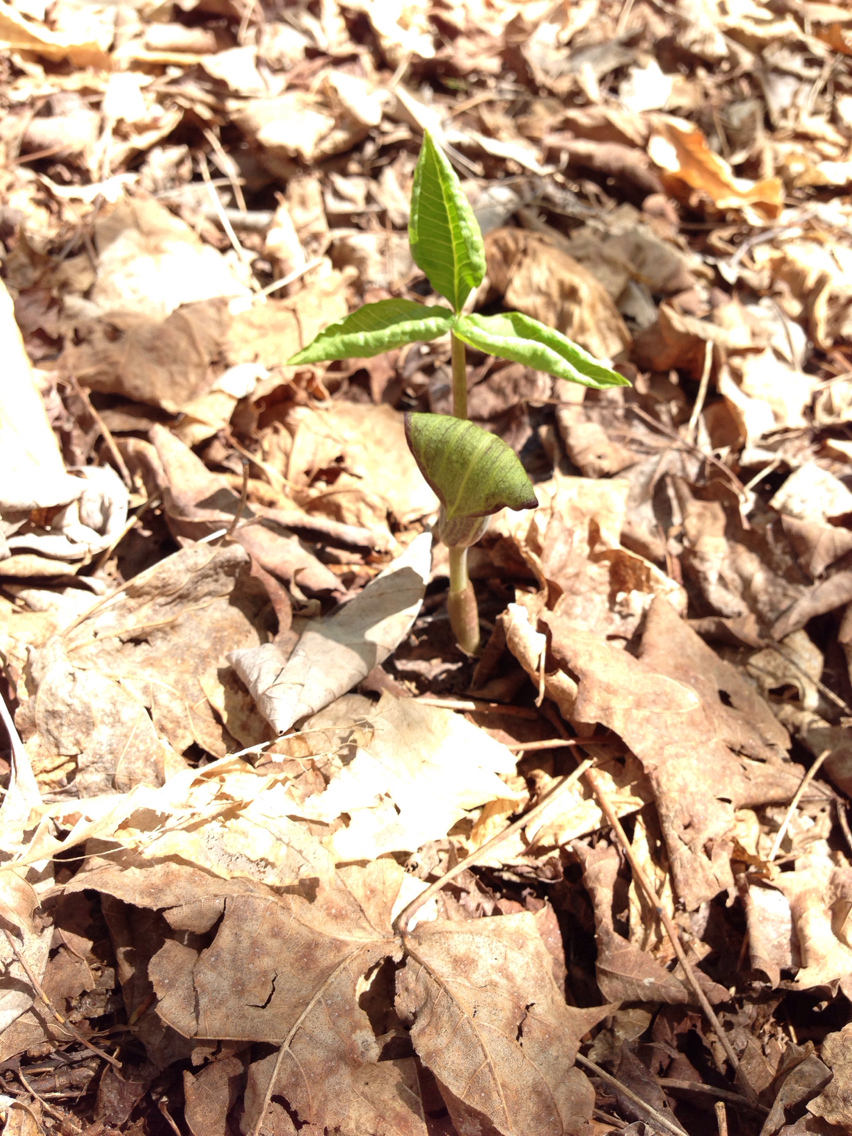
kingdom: Plantae
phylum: Tracheophyta
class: Liliopsida
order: Alismatales
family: Araceae
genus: Arisaema
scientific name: Arisaema triphyllum
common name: Jack-in-the-pulpit
